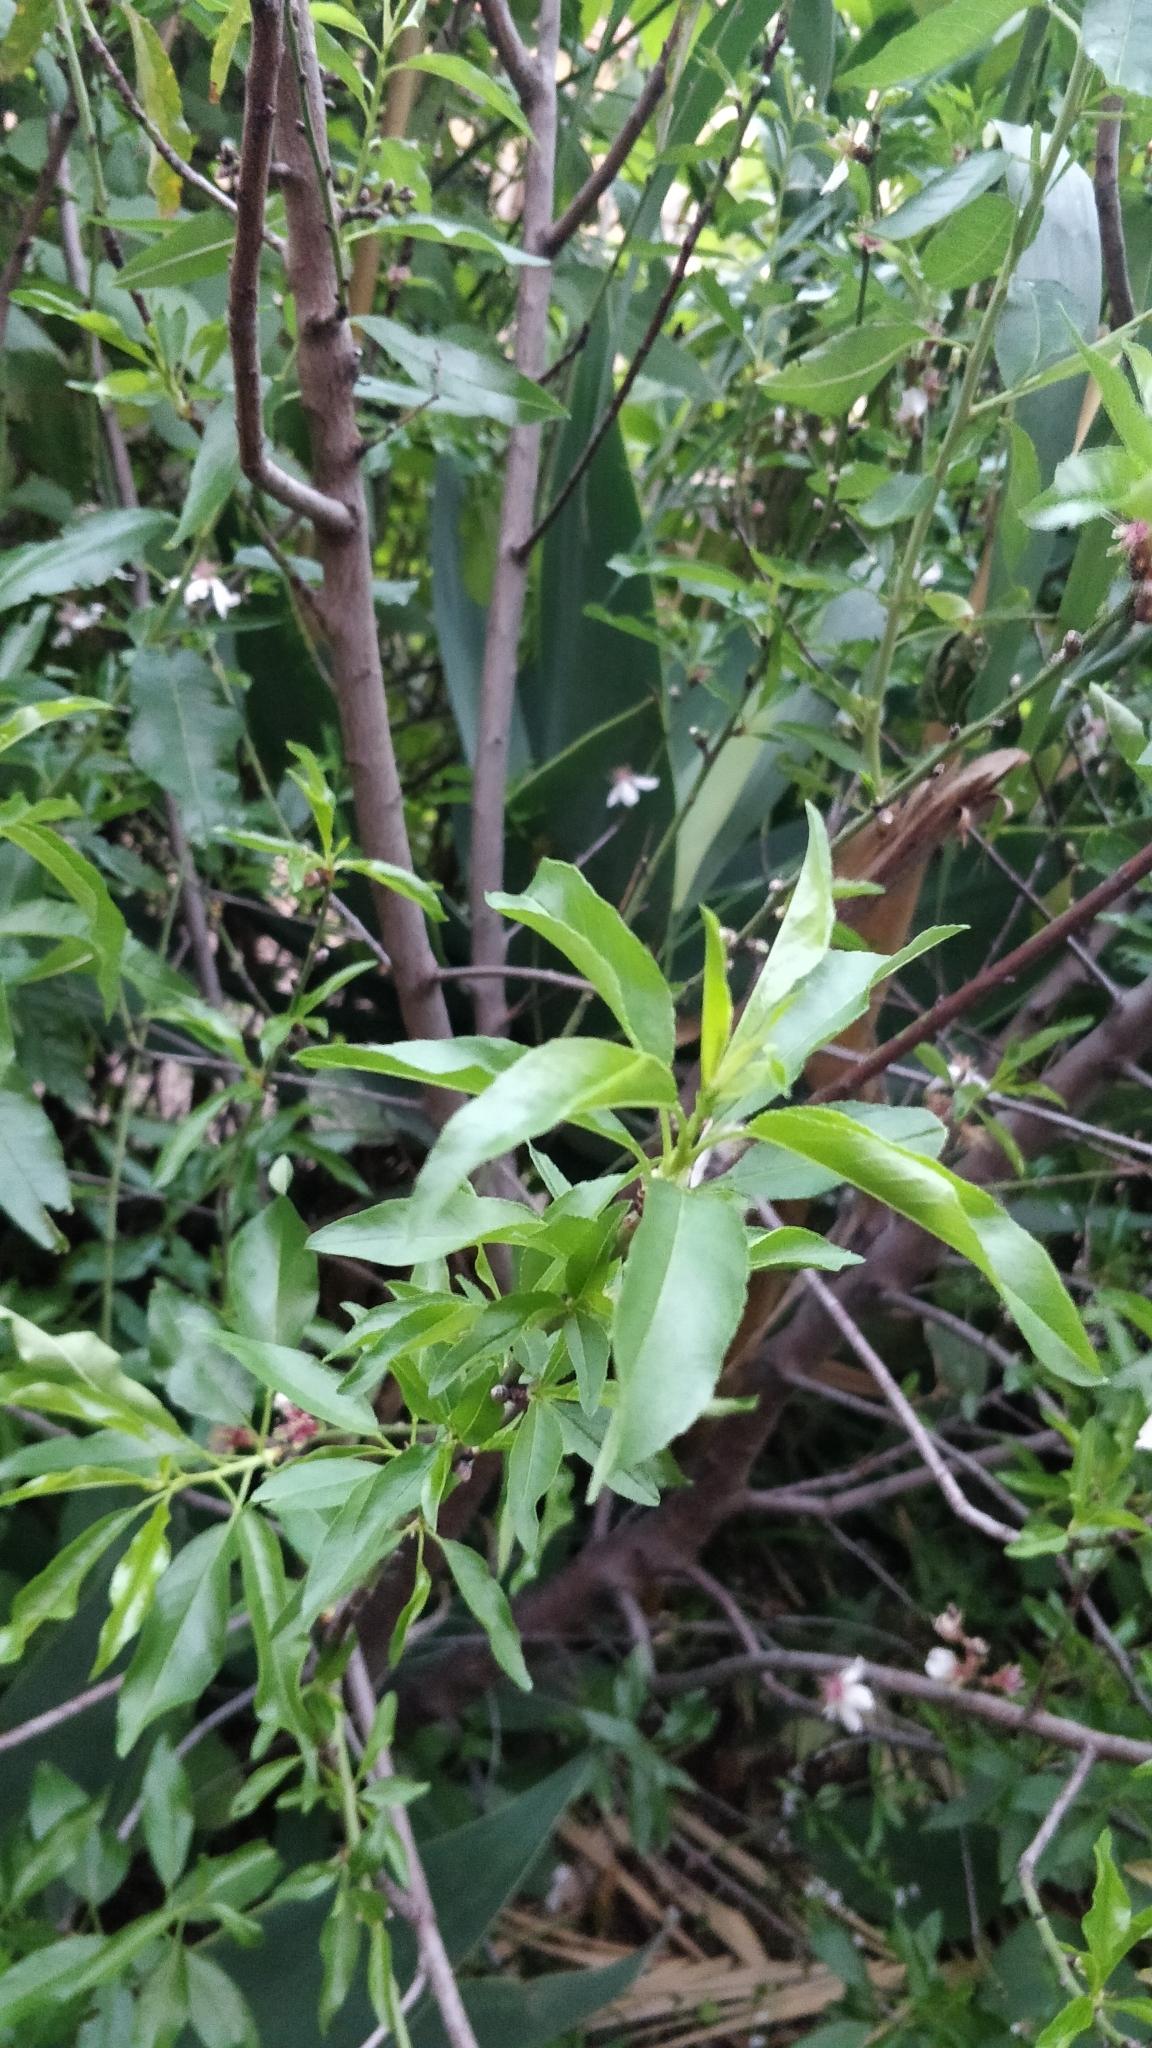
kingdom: Plantae
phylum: Tracheophyta
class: Magnoliopsida
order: Rosales
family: Rosaceae
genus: Prunus
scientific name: Prunus amygdalus
